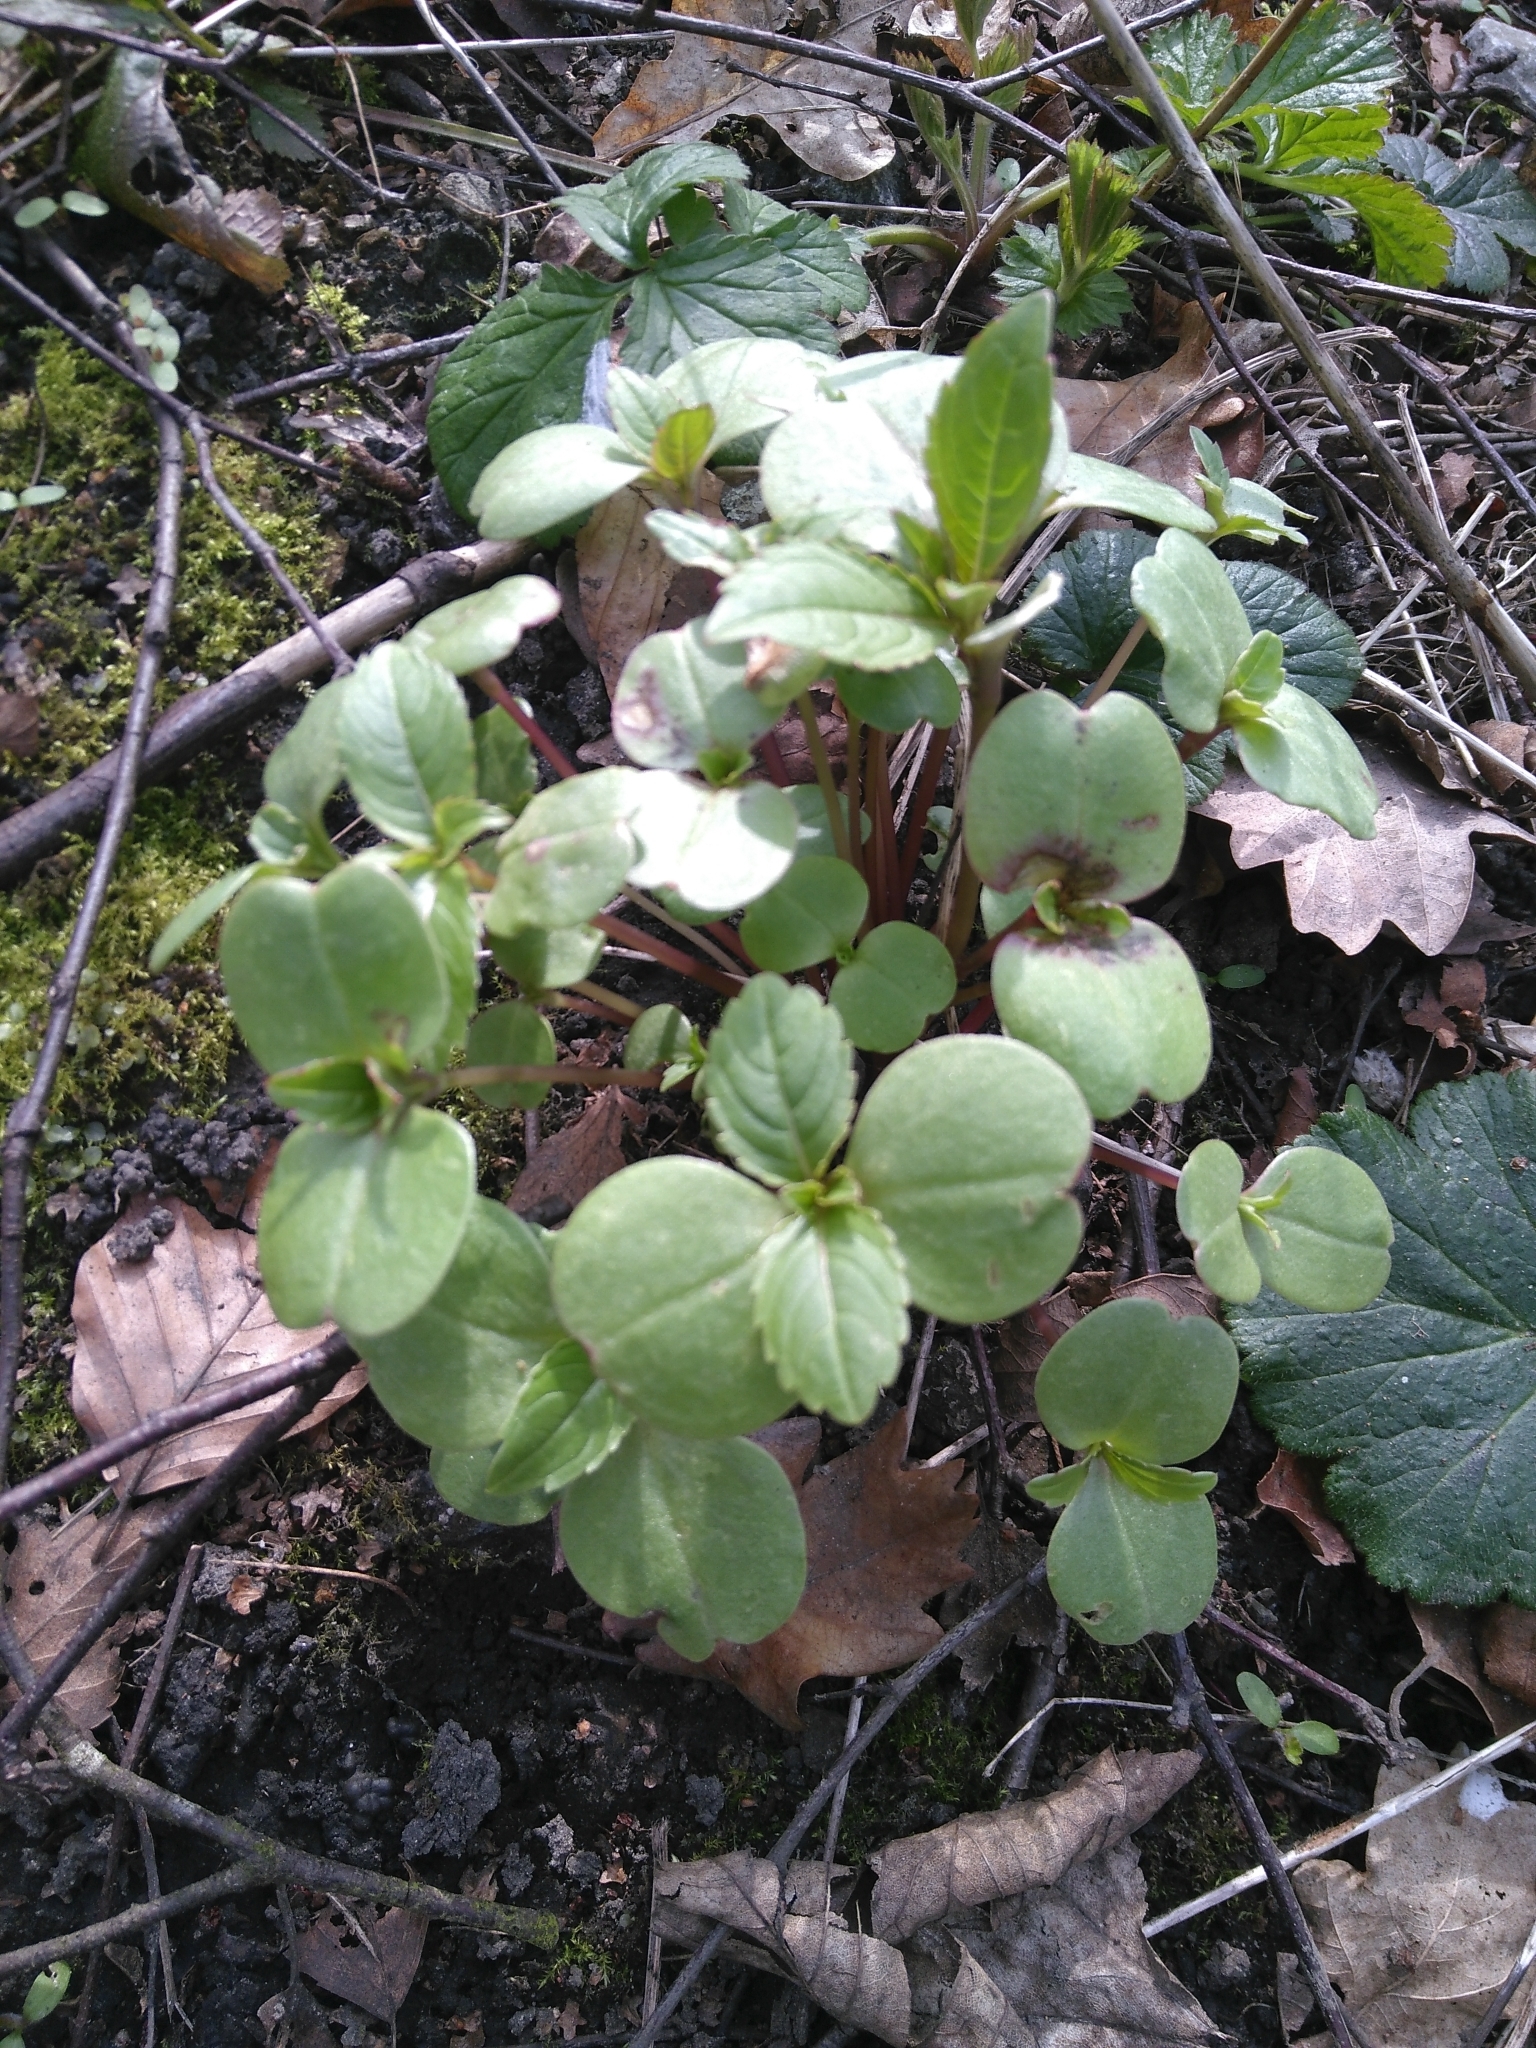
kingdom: Plantae
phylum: Tracheophyta
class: Magnoliopsida
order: Ericales
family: Balsaminaceae
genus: Impatiens
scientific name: Impatiens glandulifera
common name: Himalayan balsam
